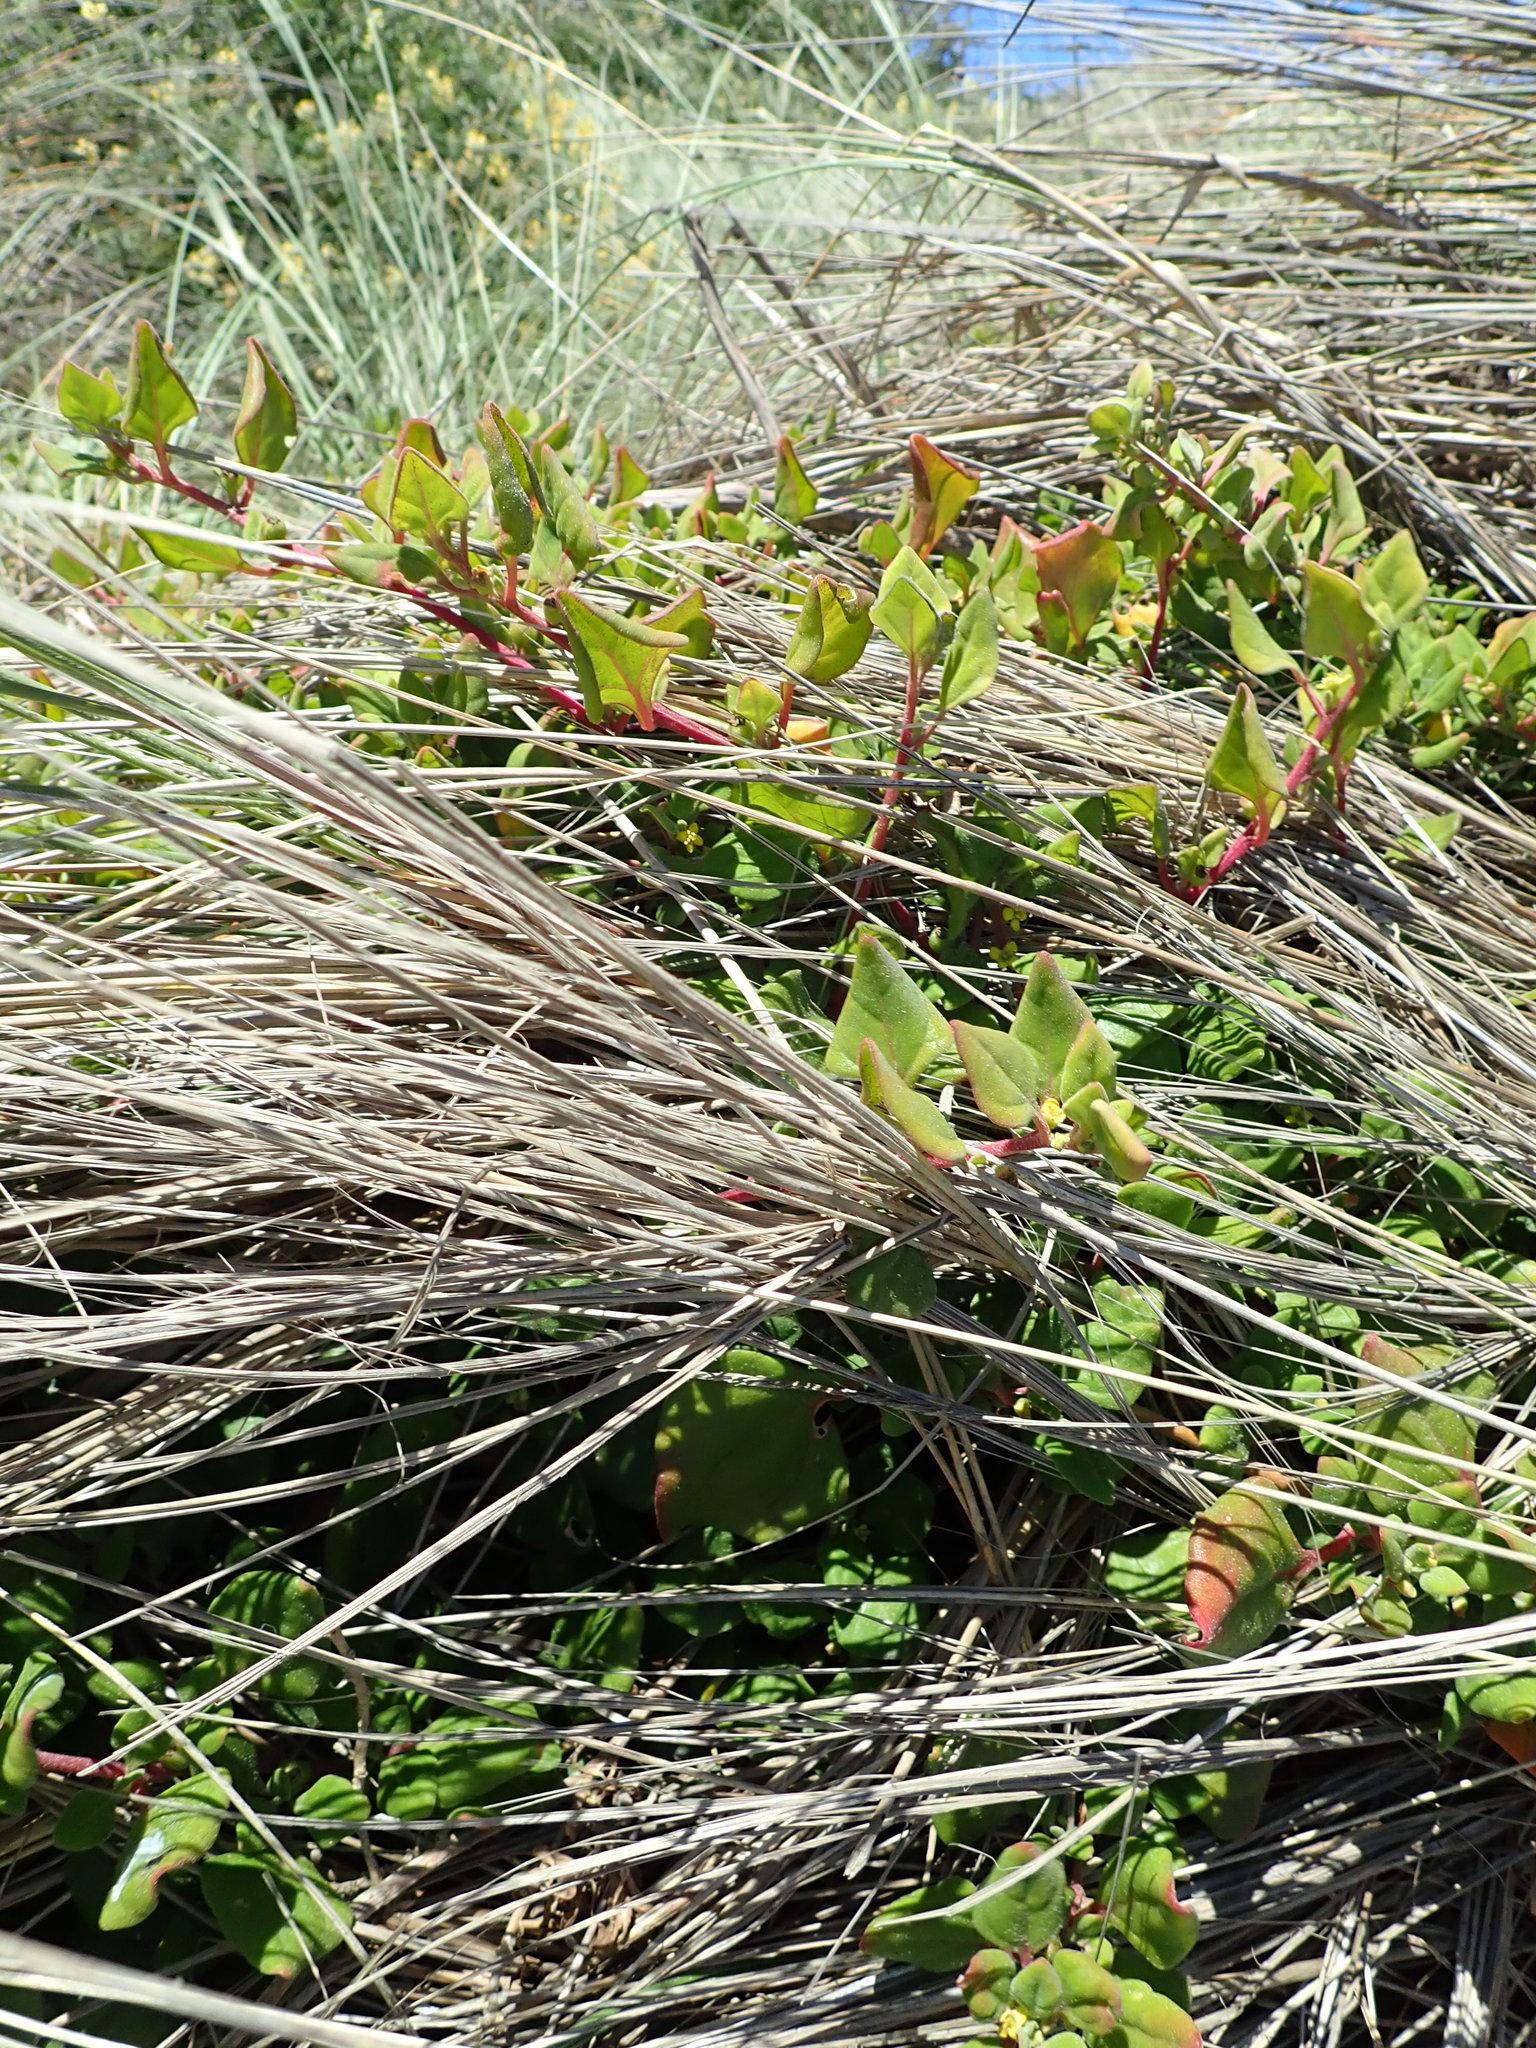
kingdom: Plantae
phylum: Tracheophyta
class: Magnoliopsida
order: Caryophyllales
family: Aizoaceae
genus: Tetragonia
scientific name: Tetragonia implexicoma
